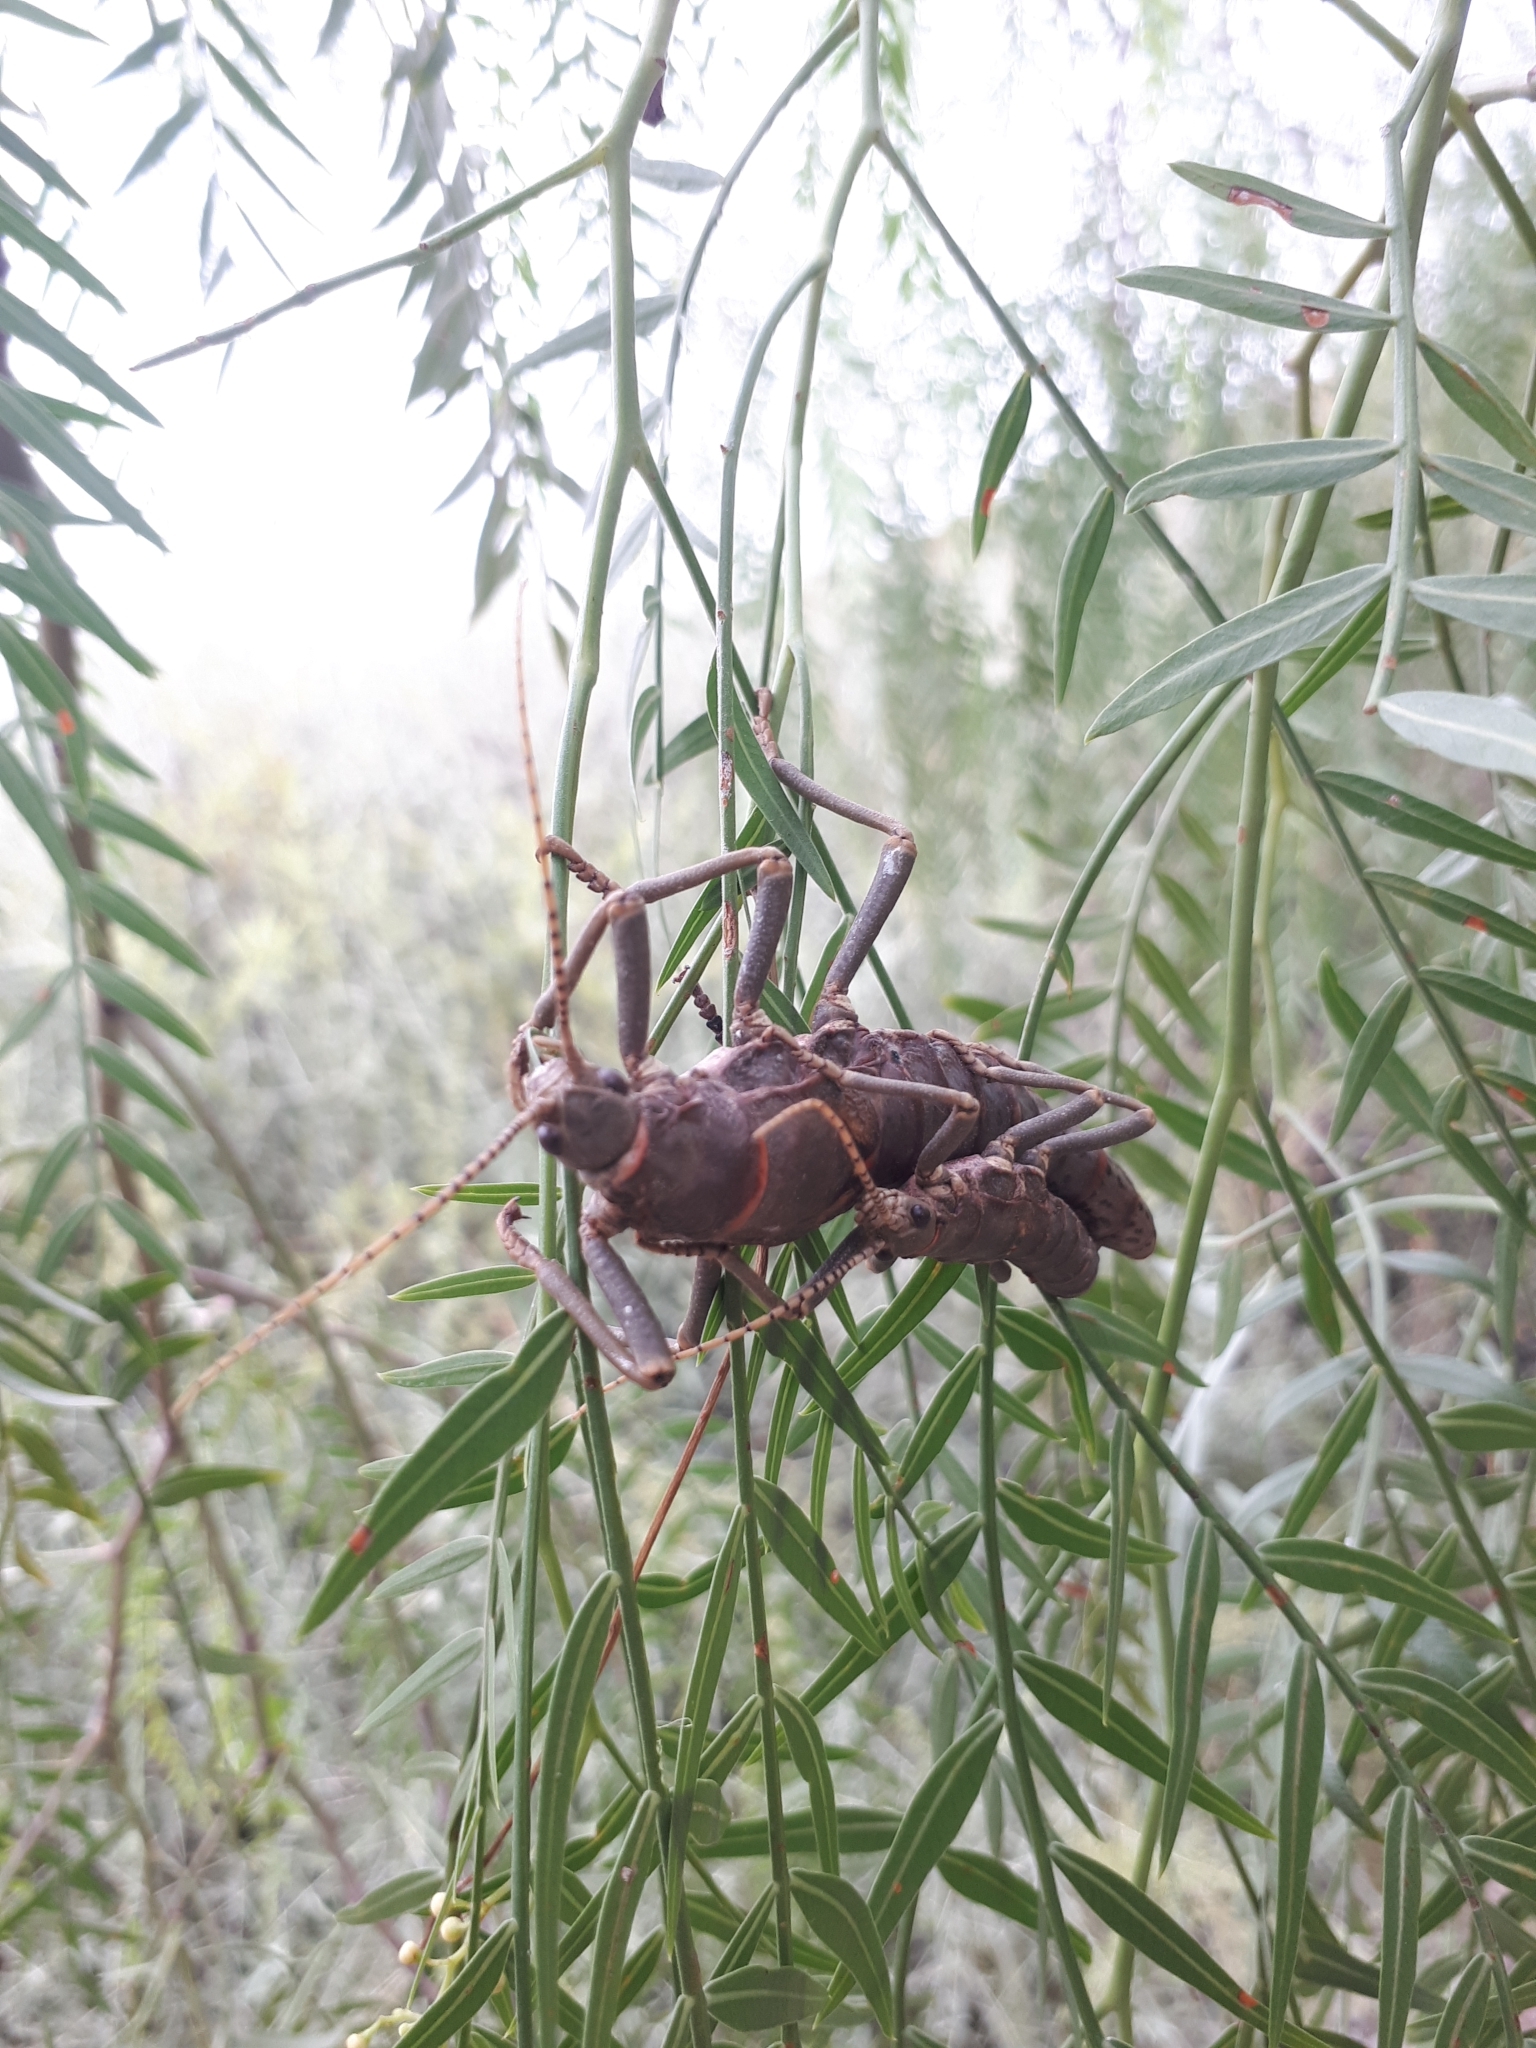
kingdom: Animalia
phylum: Arthropoda
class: Insecta
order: Phasmida
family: Agathemeridae
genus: Agathemera
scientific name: Agathemera luteola
